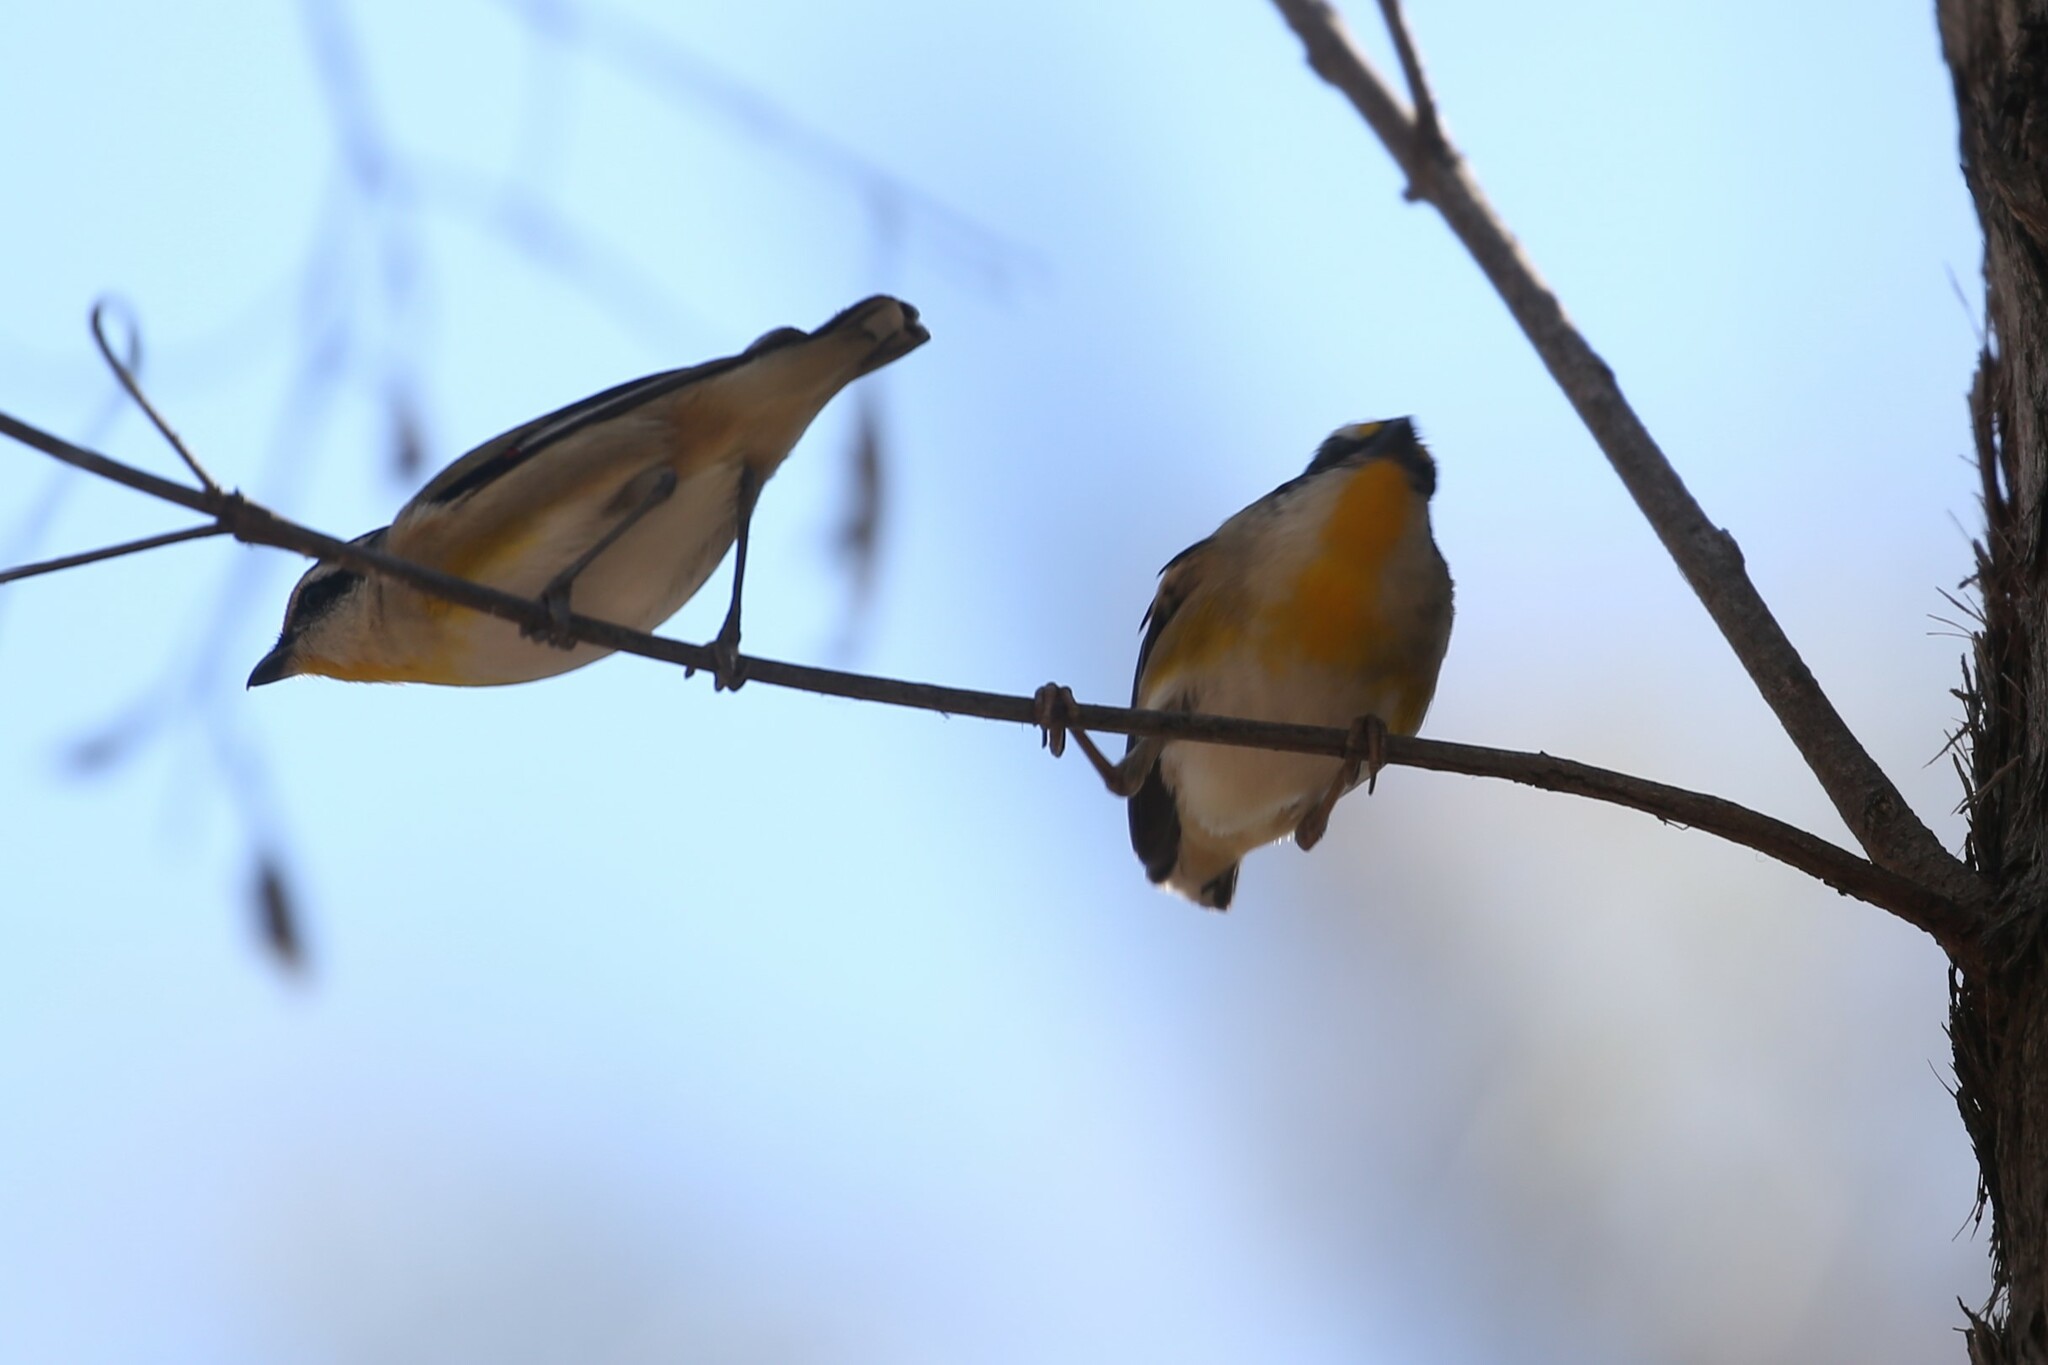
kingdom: Animalia
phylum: Chordata
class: Aves
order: Passeriformes
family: Pardalotidae
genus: Pardalotus
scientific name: Pardalotus striatus
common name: Striated pardalote
